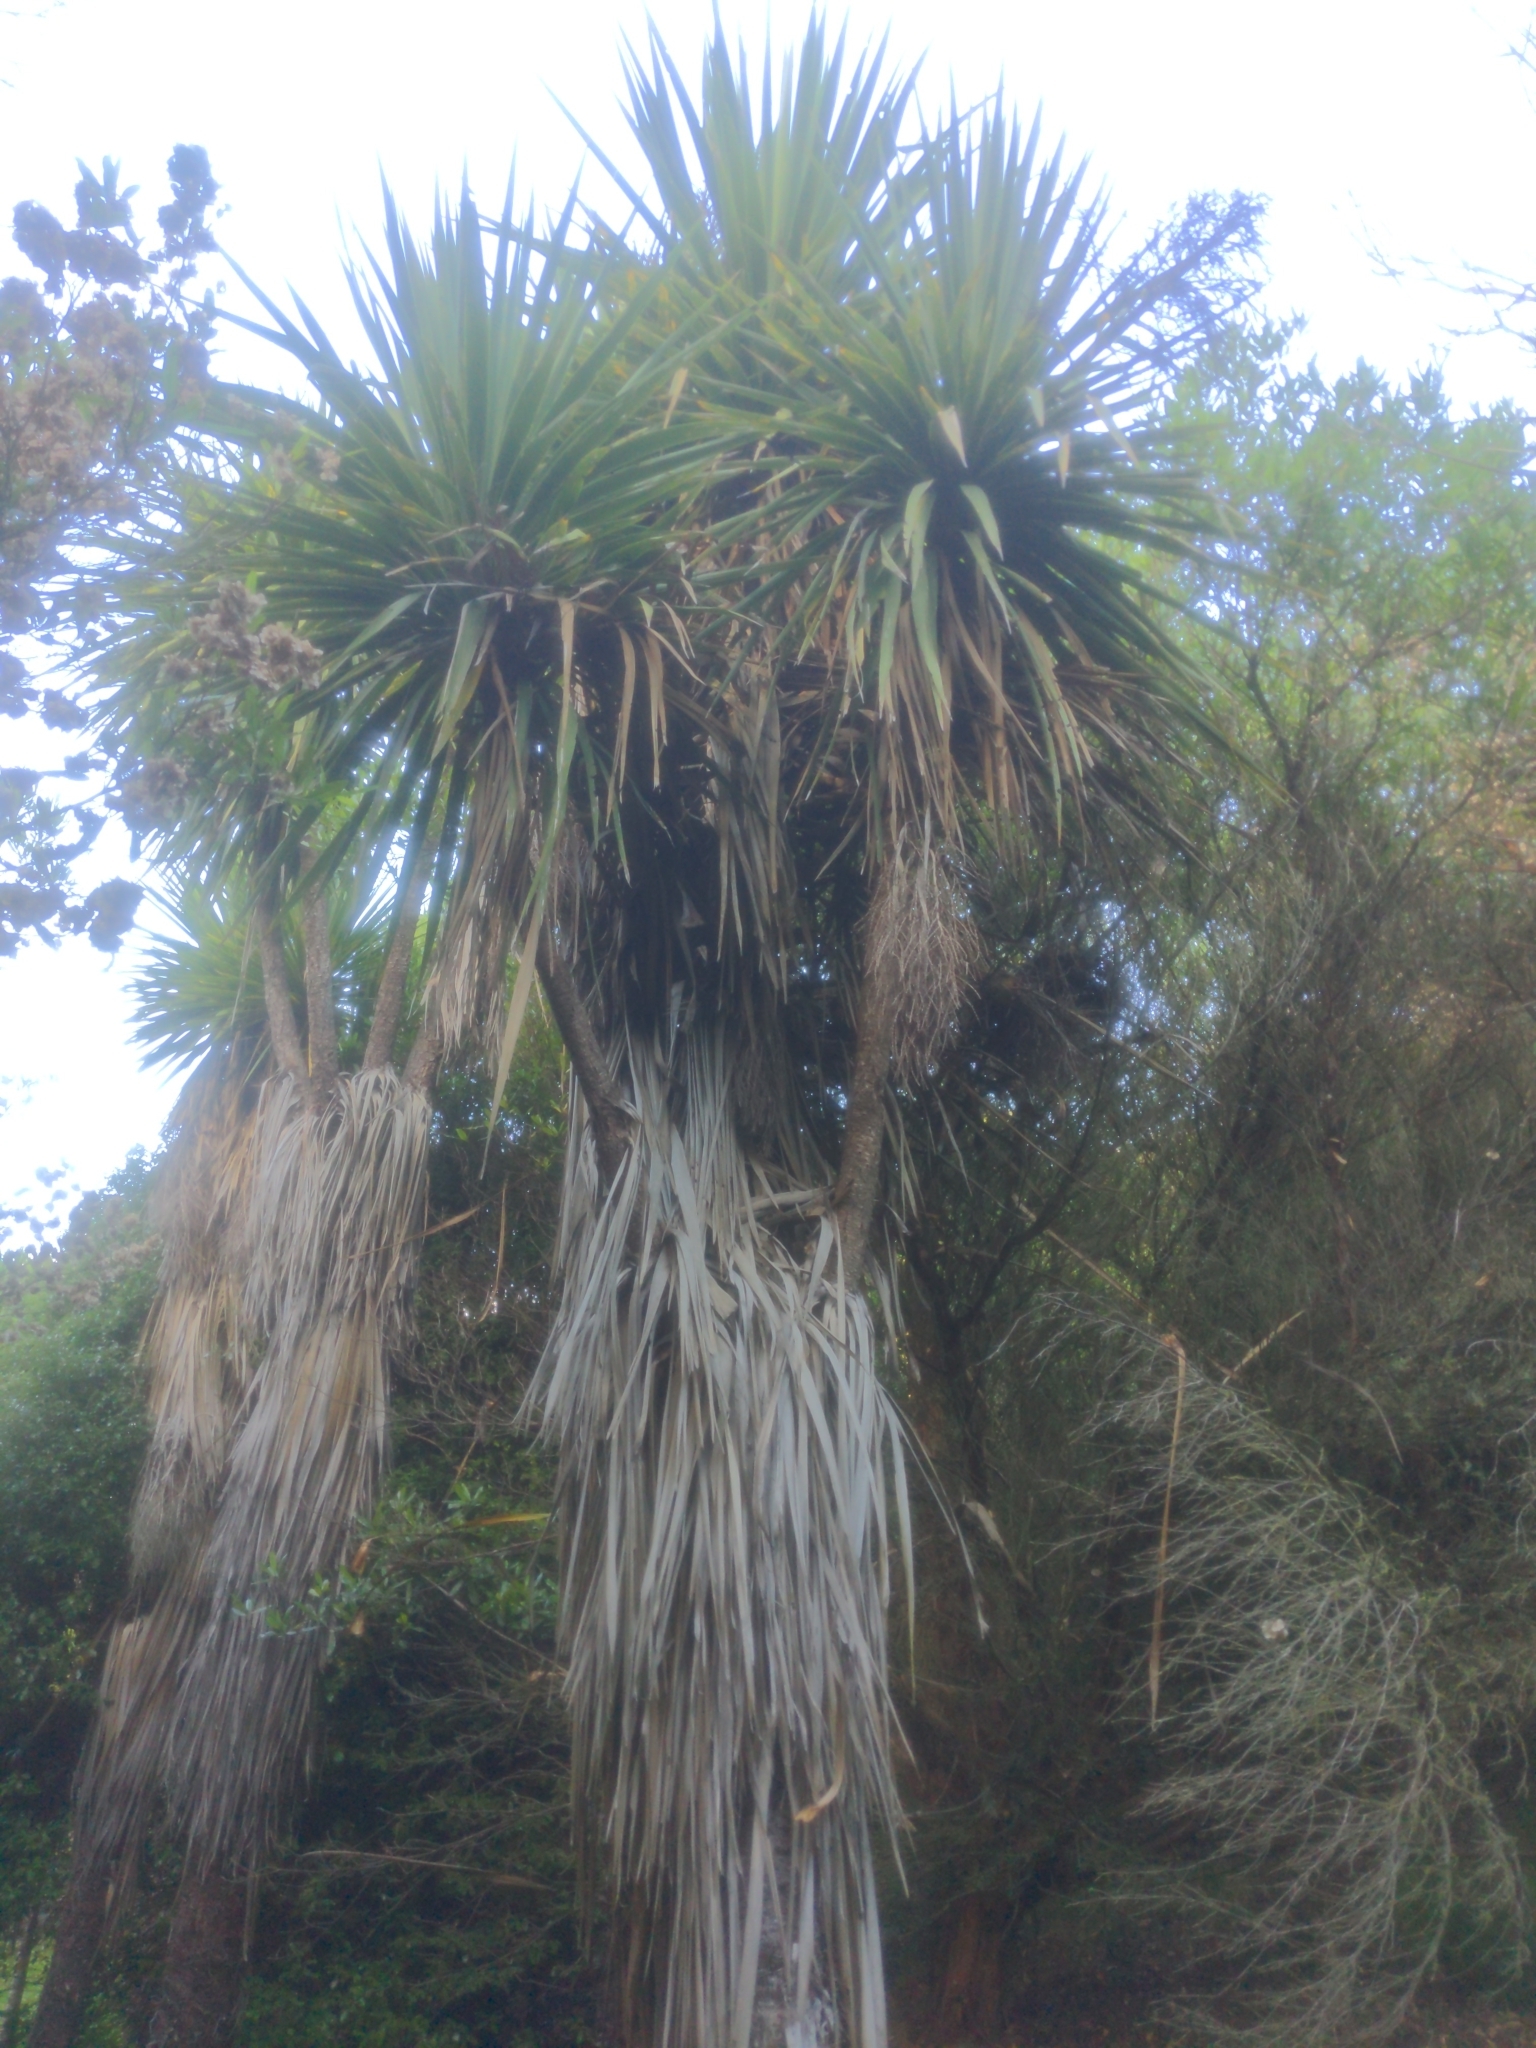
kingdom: Plantae
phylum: Tracheophyta
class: Liliopsida
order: Asparagales
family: Asparagaceae
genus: Cordyline
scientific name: Cordyline australis
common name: Cabbage-palm
